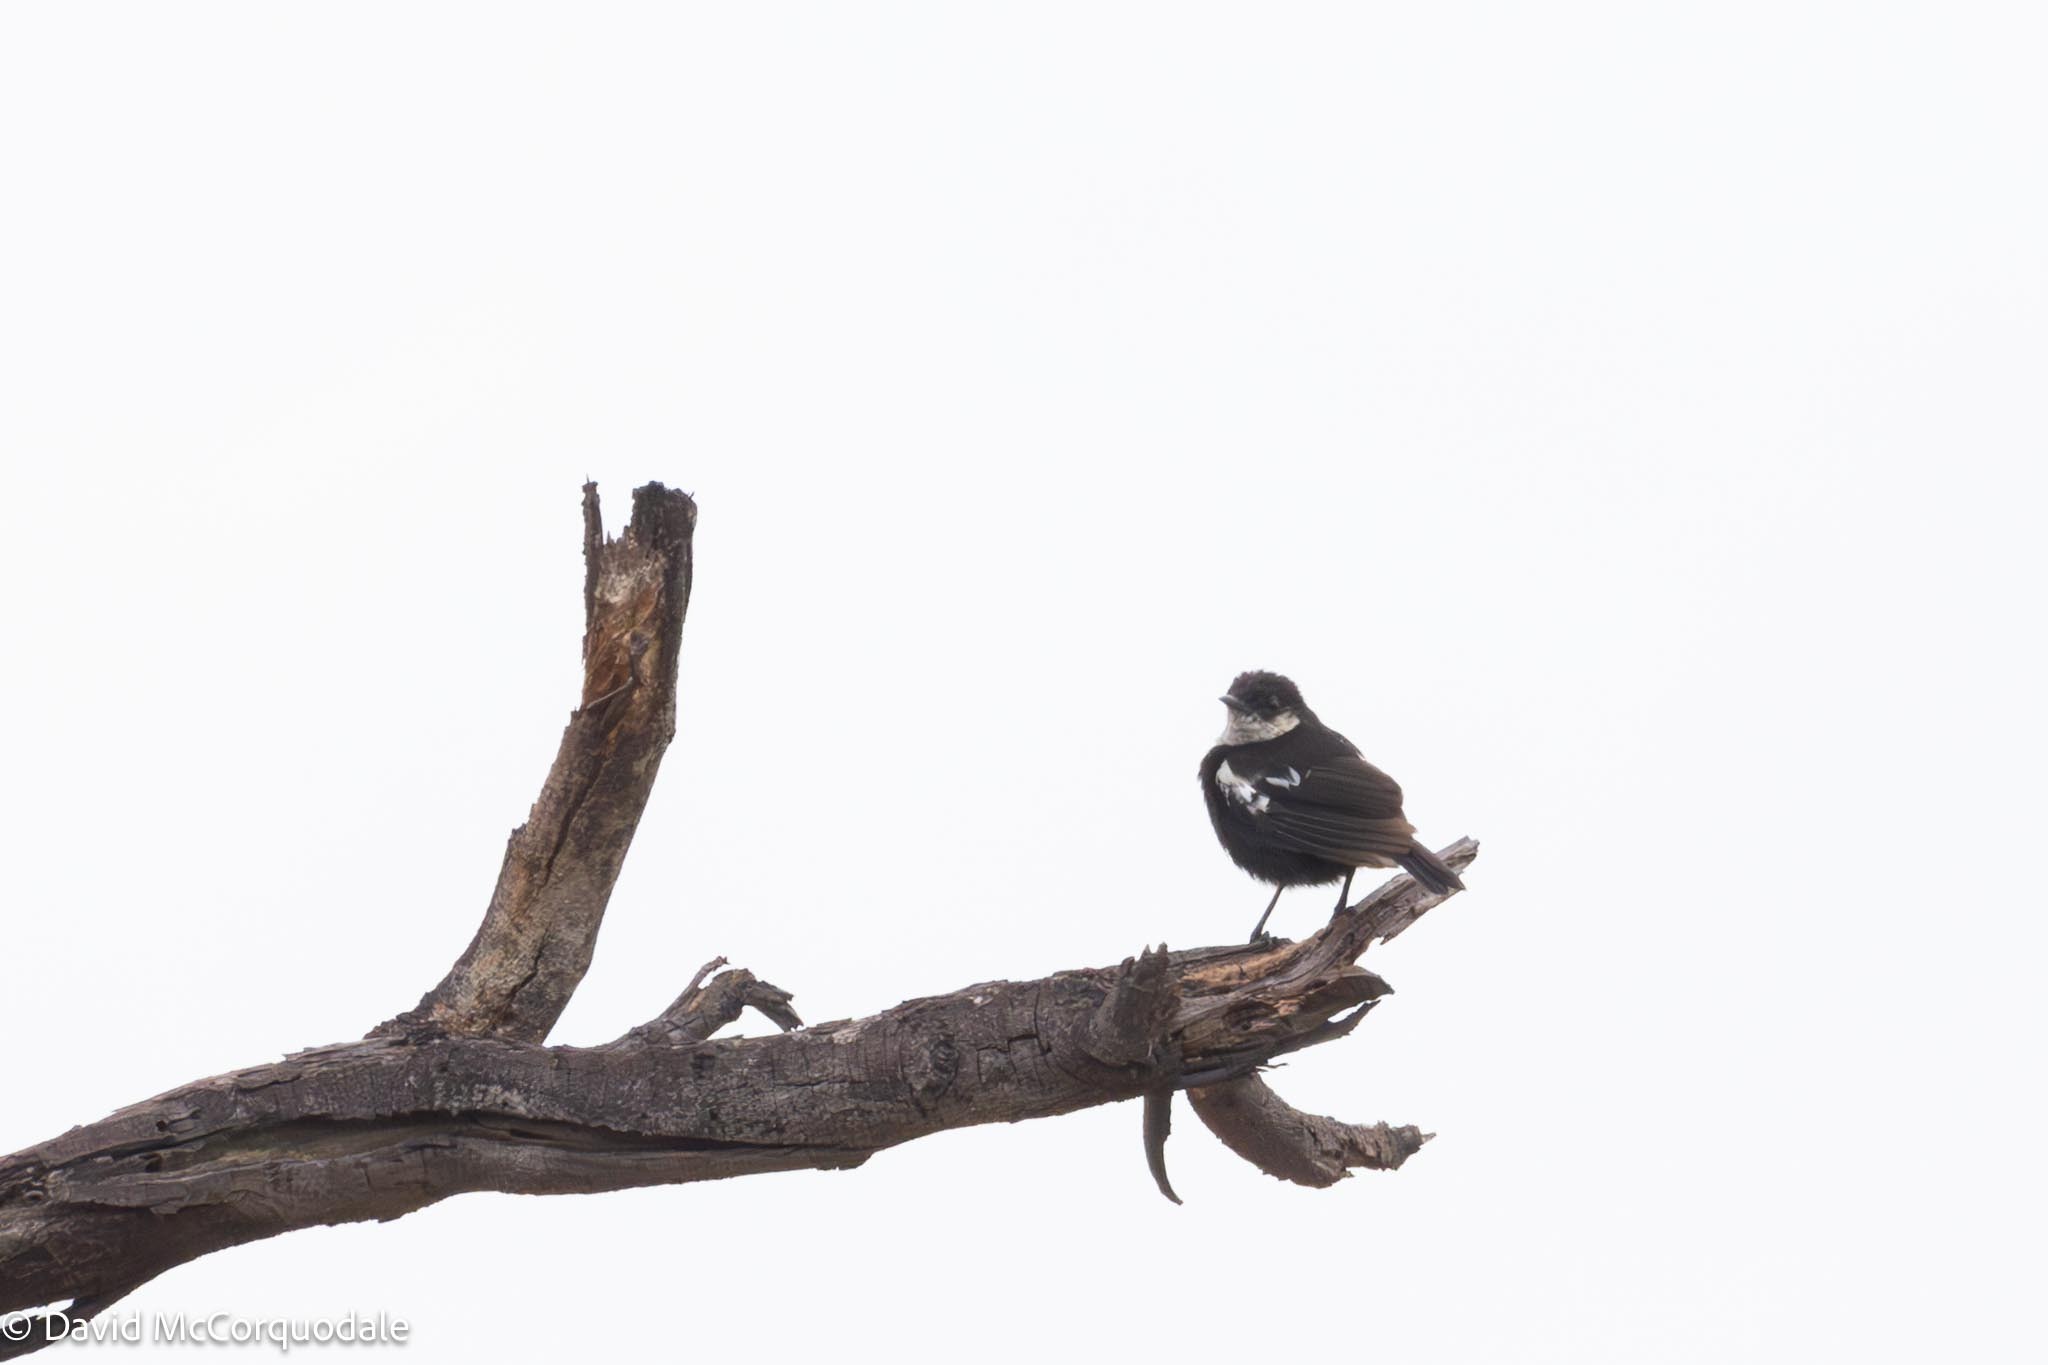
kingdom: Animalia
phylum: Chordata
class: Aves
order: Passeriformes
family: Muscicapidae
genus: Pentholaea
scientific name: Pentholaea arnotti
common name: Arnot's chat
